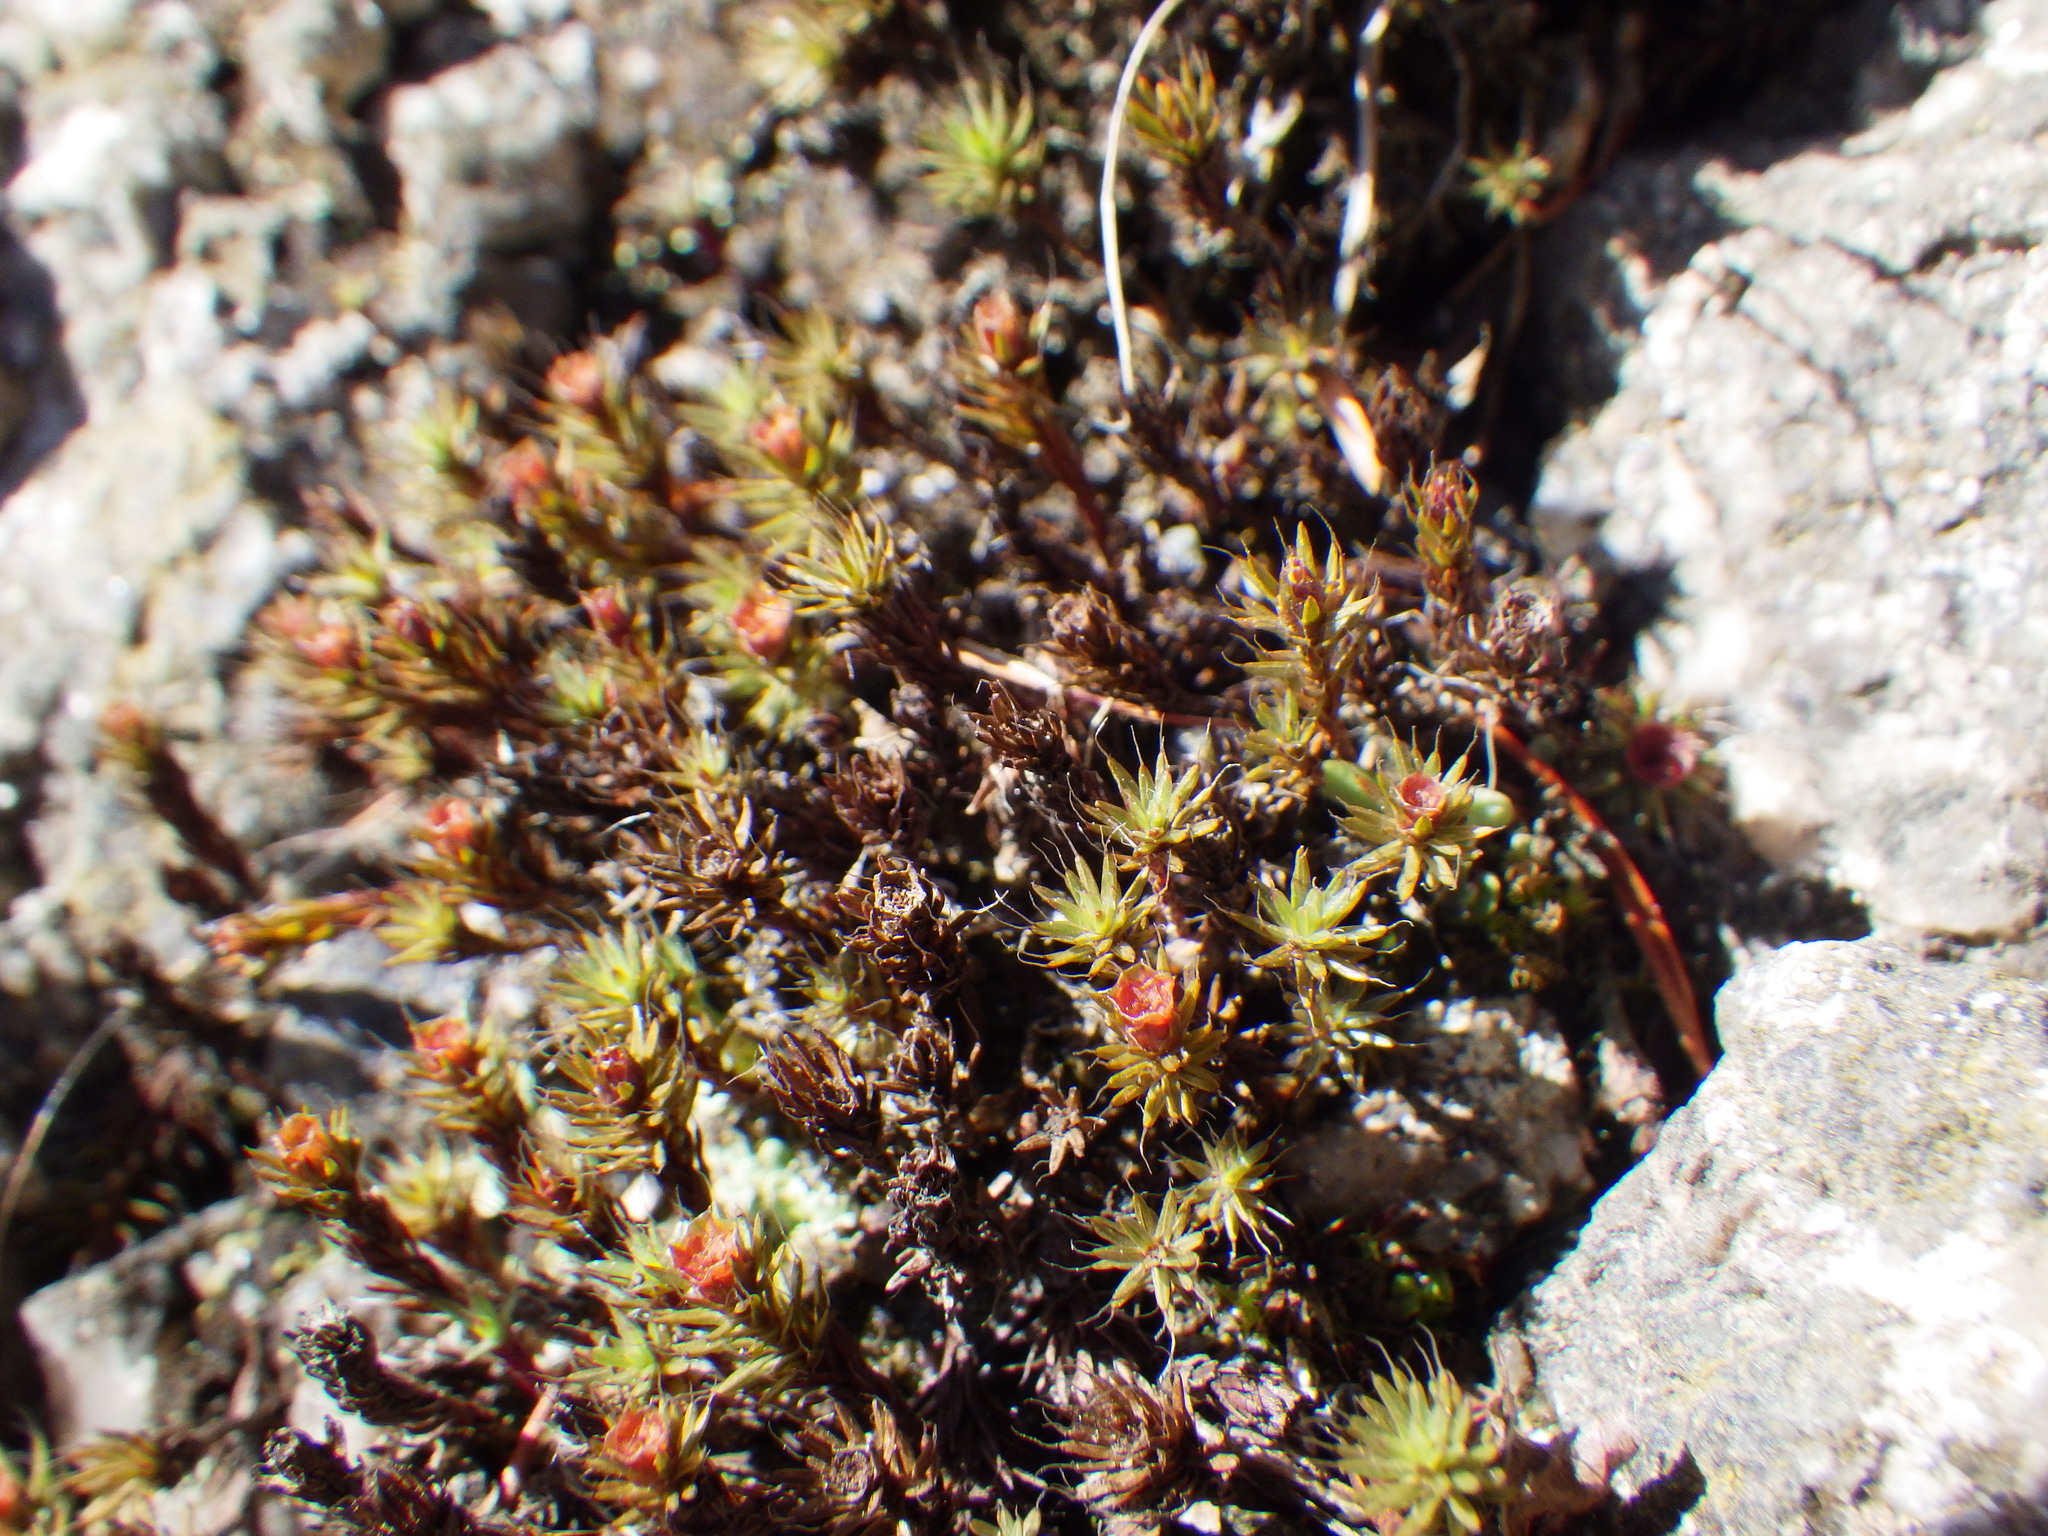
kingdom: Plantae
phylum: Bryophyta
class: Polytrichopsida
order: Polytrichales
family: Polytrichaceae
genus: Polytrichum
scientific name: Polytrichum piliferum
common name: Bristly haircap
